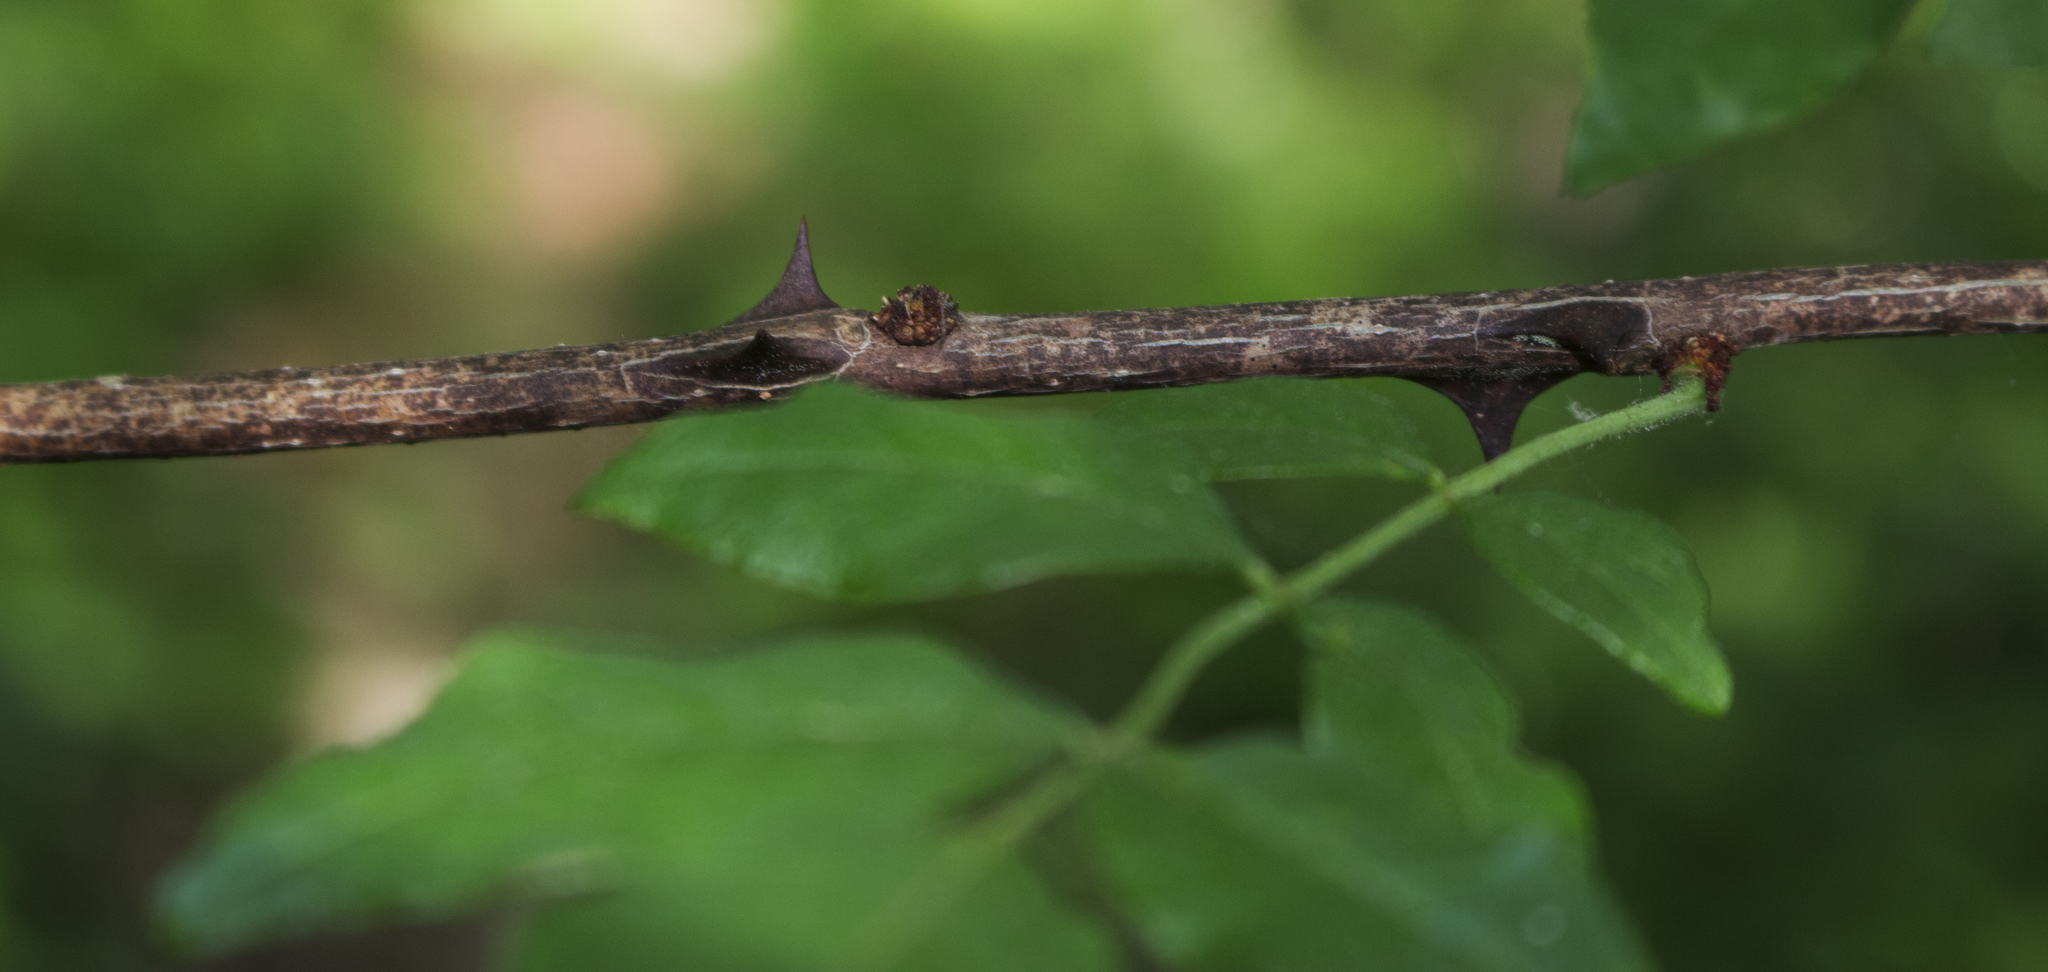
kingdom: Plantae
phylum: Tracheophyta
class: Magnoliopsida
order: Sapindales
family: Rutaceae
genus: Zanthoxylum
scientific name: Zanthoxylum americanum
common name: Northern prickly-ash
